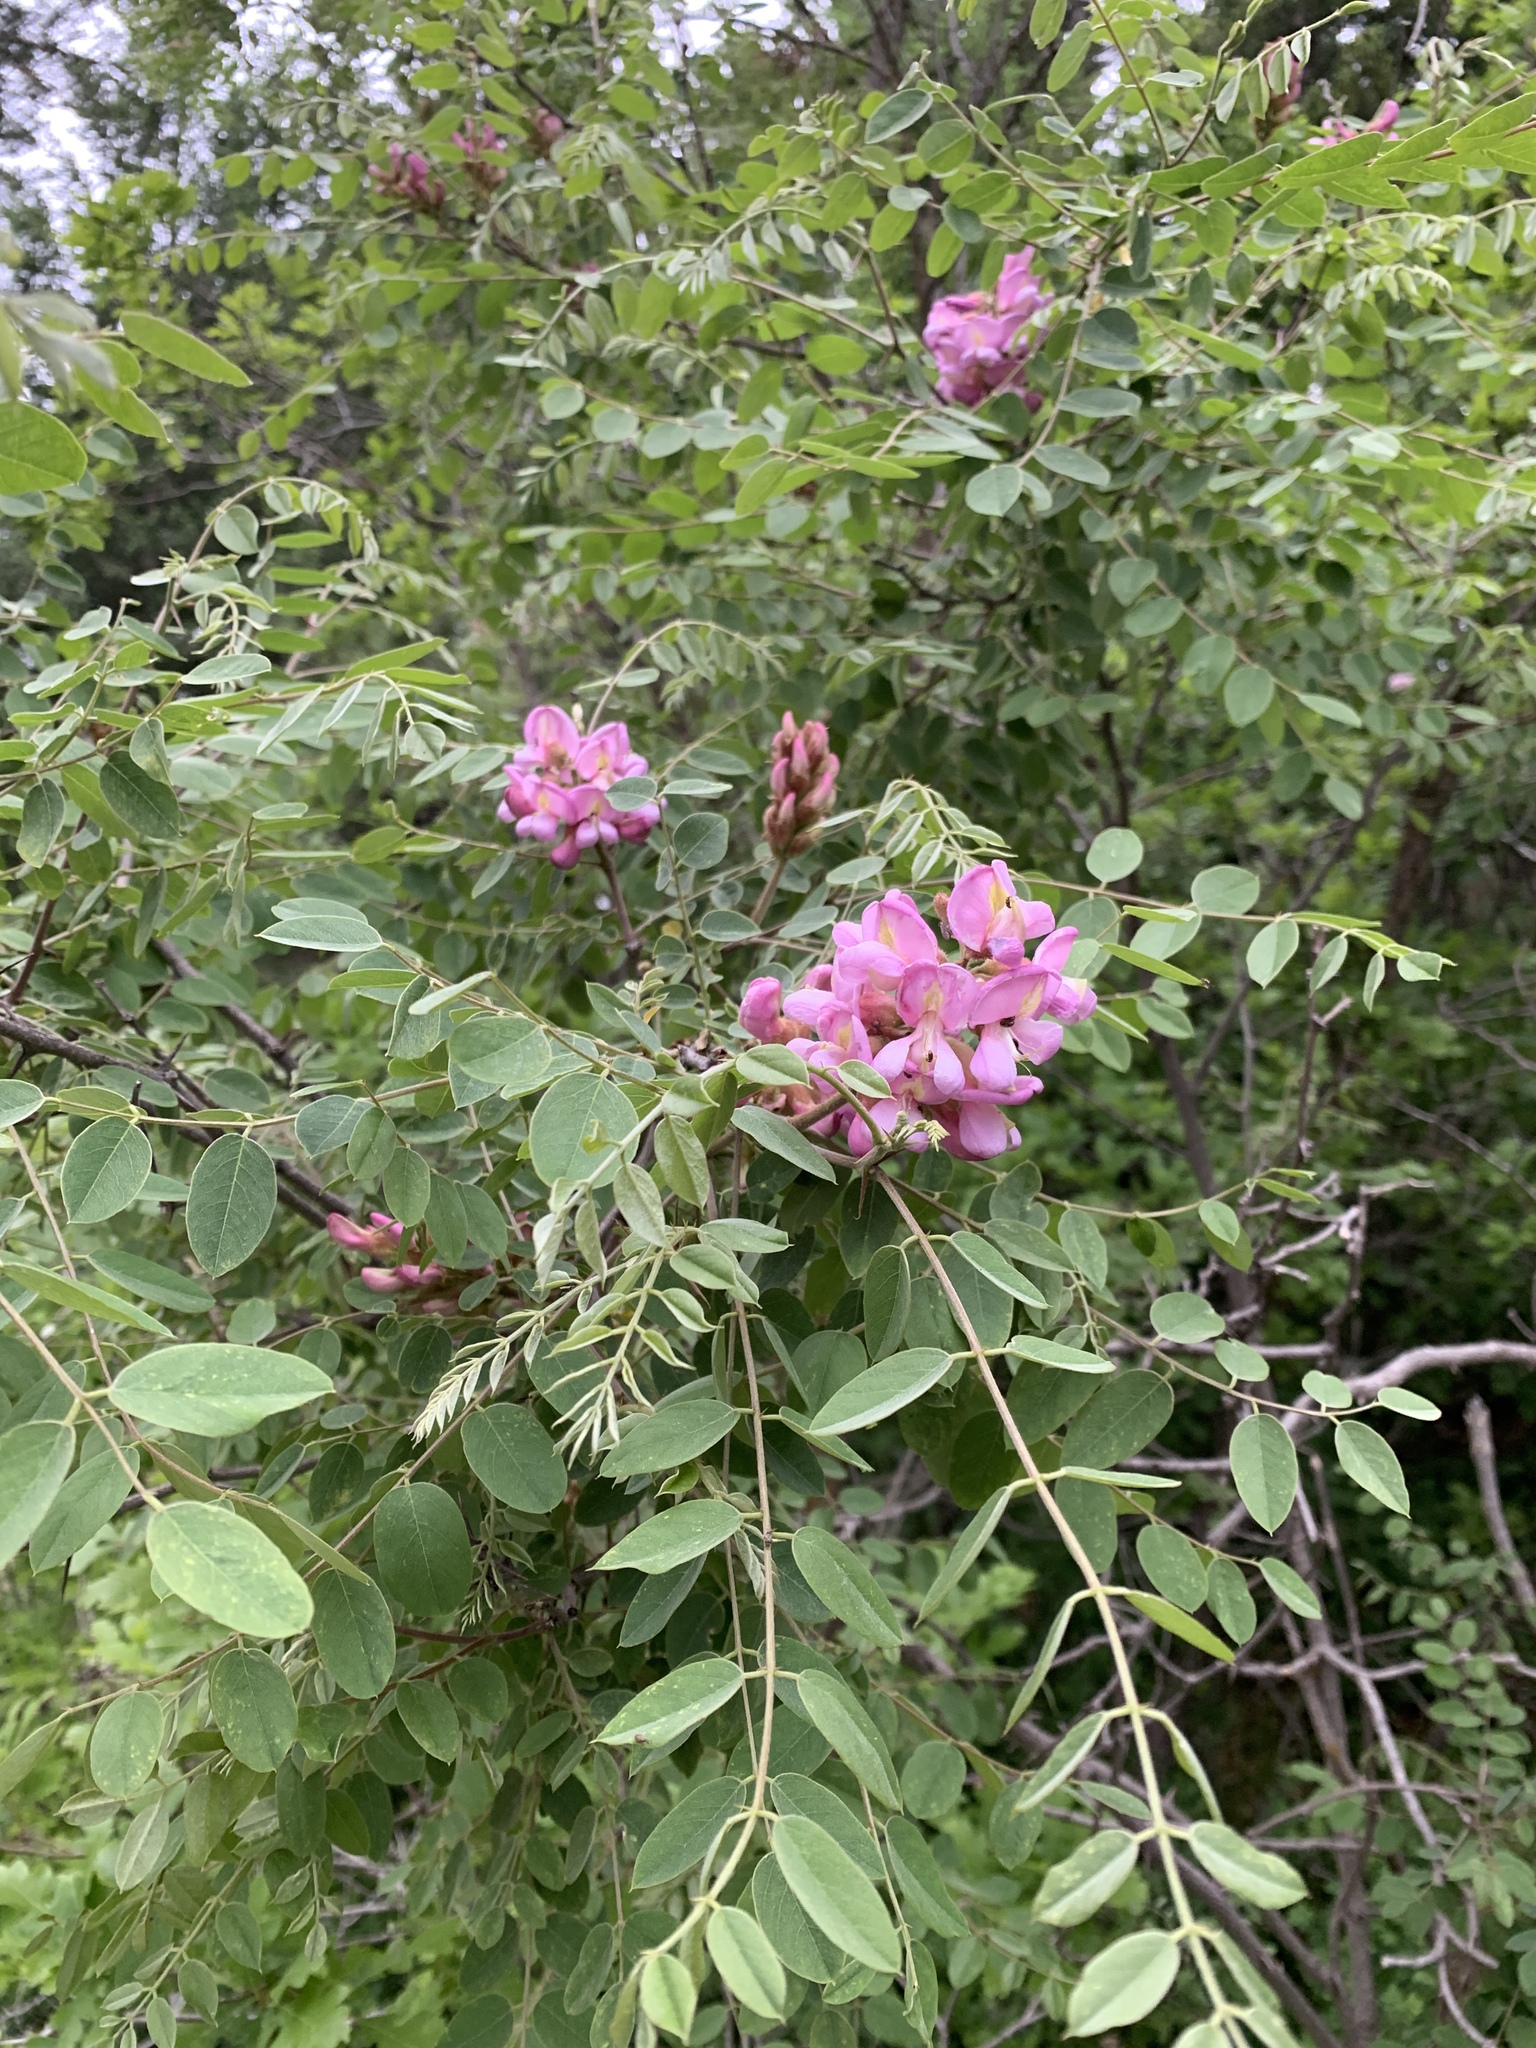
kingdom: Plantae
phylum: Tracheophyta
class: Magnoliopsida
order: Fabales
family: Fabaceae
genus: Robinia
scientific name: Robinia neomexicana
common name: New mexico locust
